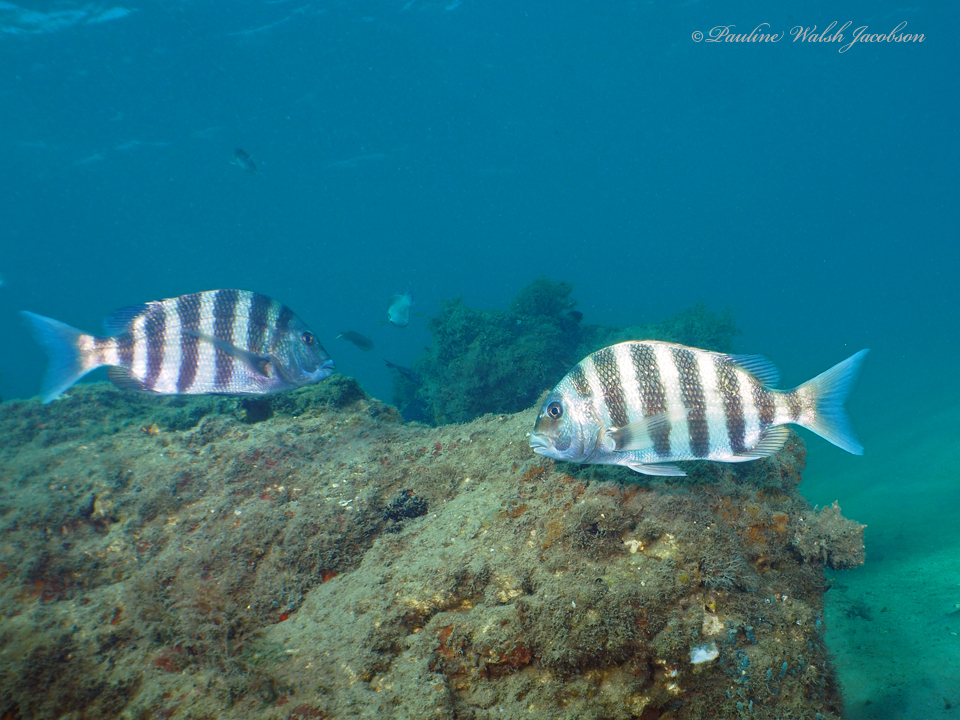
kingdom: Animalia
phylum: Chordata
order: Perciformes
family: Sparidae
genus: Archosargus
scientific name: Archosargus probatocephalus
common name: Sheepshead
